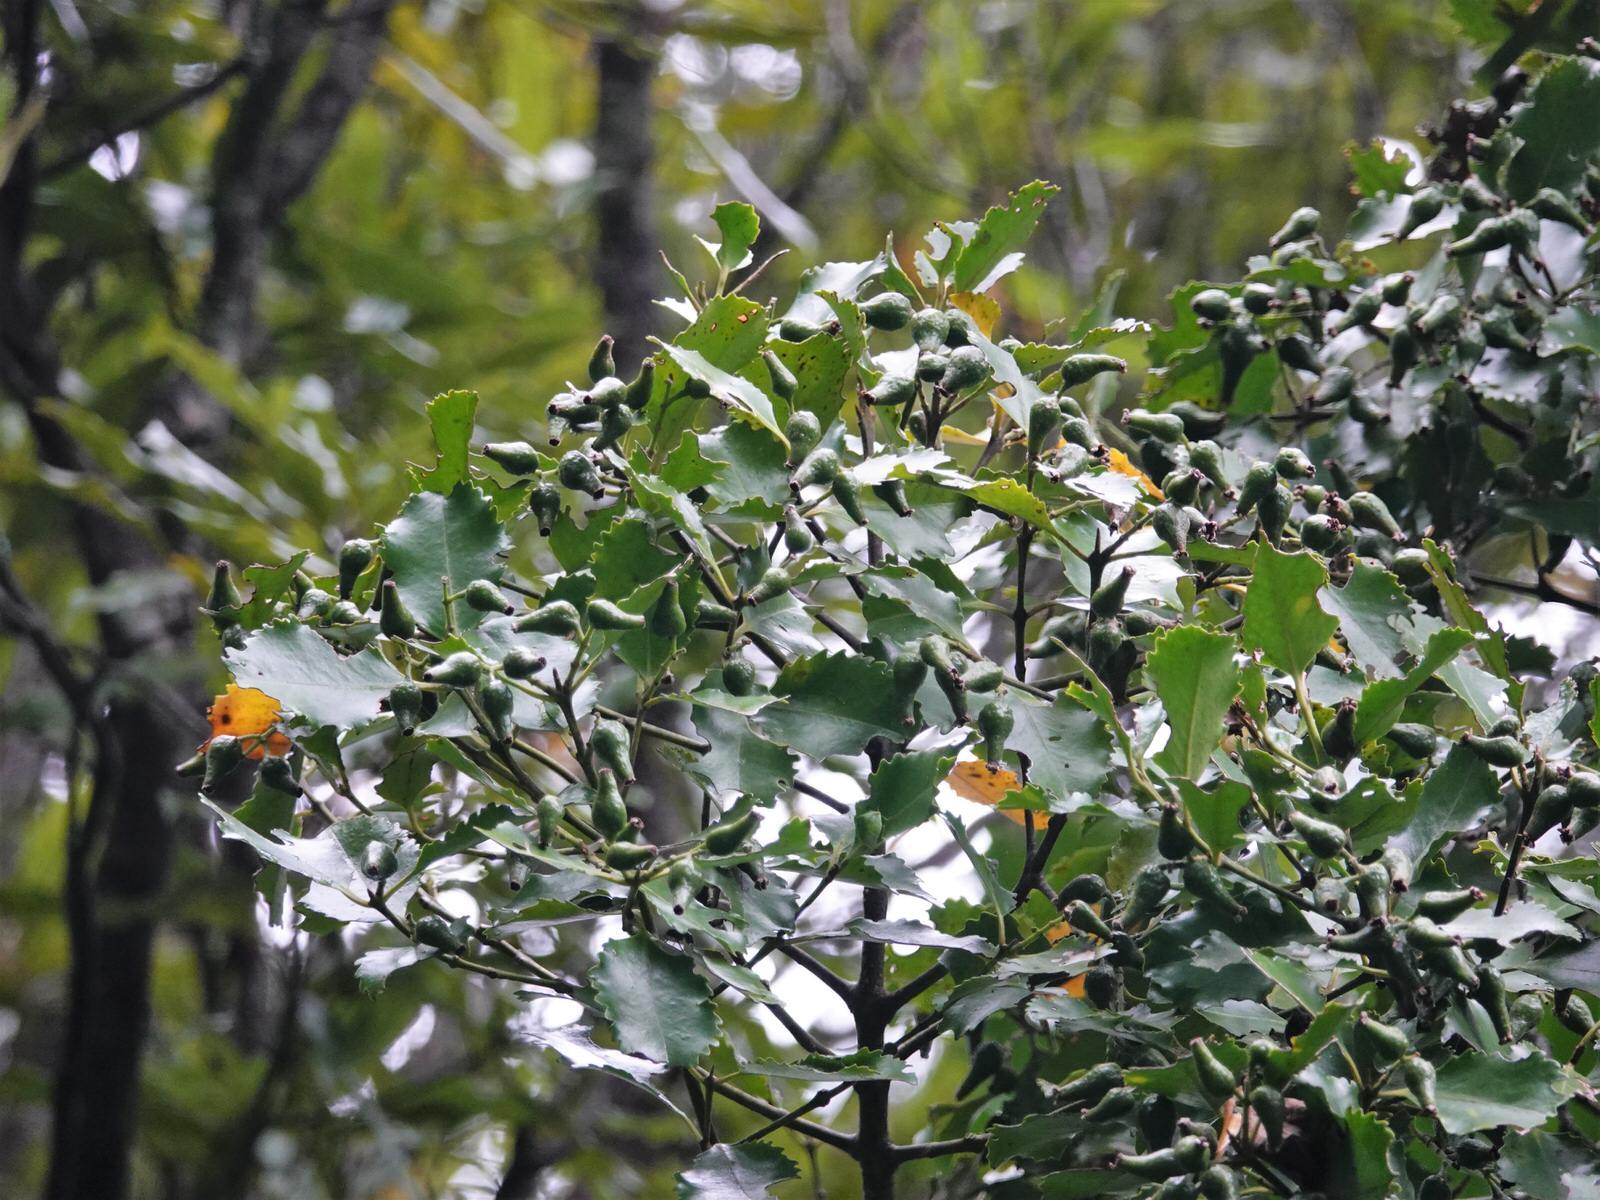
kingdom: Plantae
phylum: Tracheophyta
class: Magnoliopsida
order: Laurales
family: Atherospermataceae
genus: Laurelia
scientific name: Laurelia novae-zelandiae
